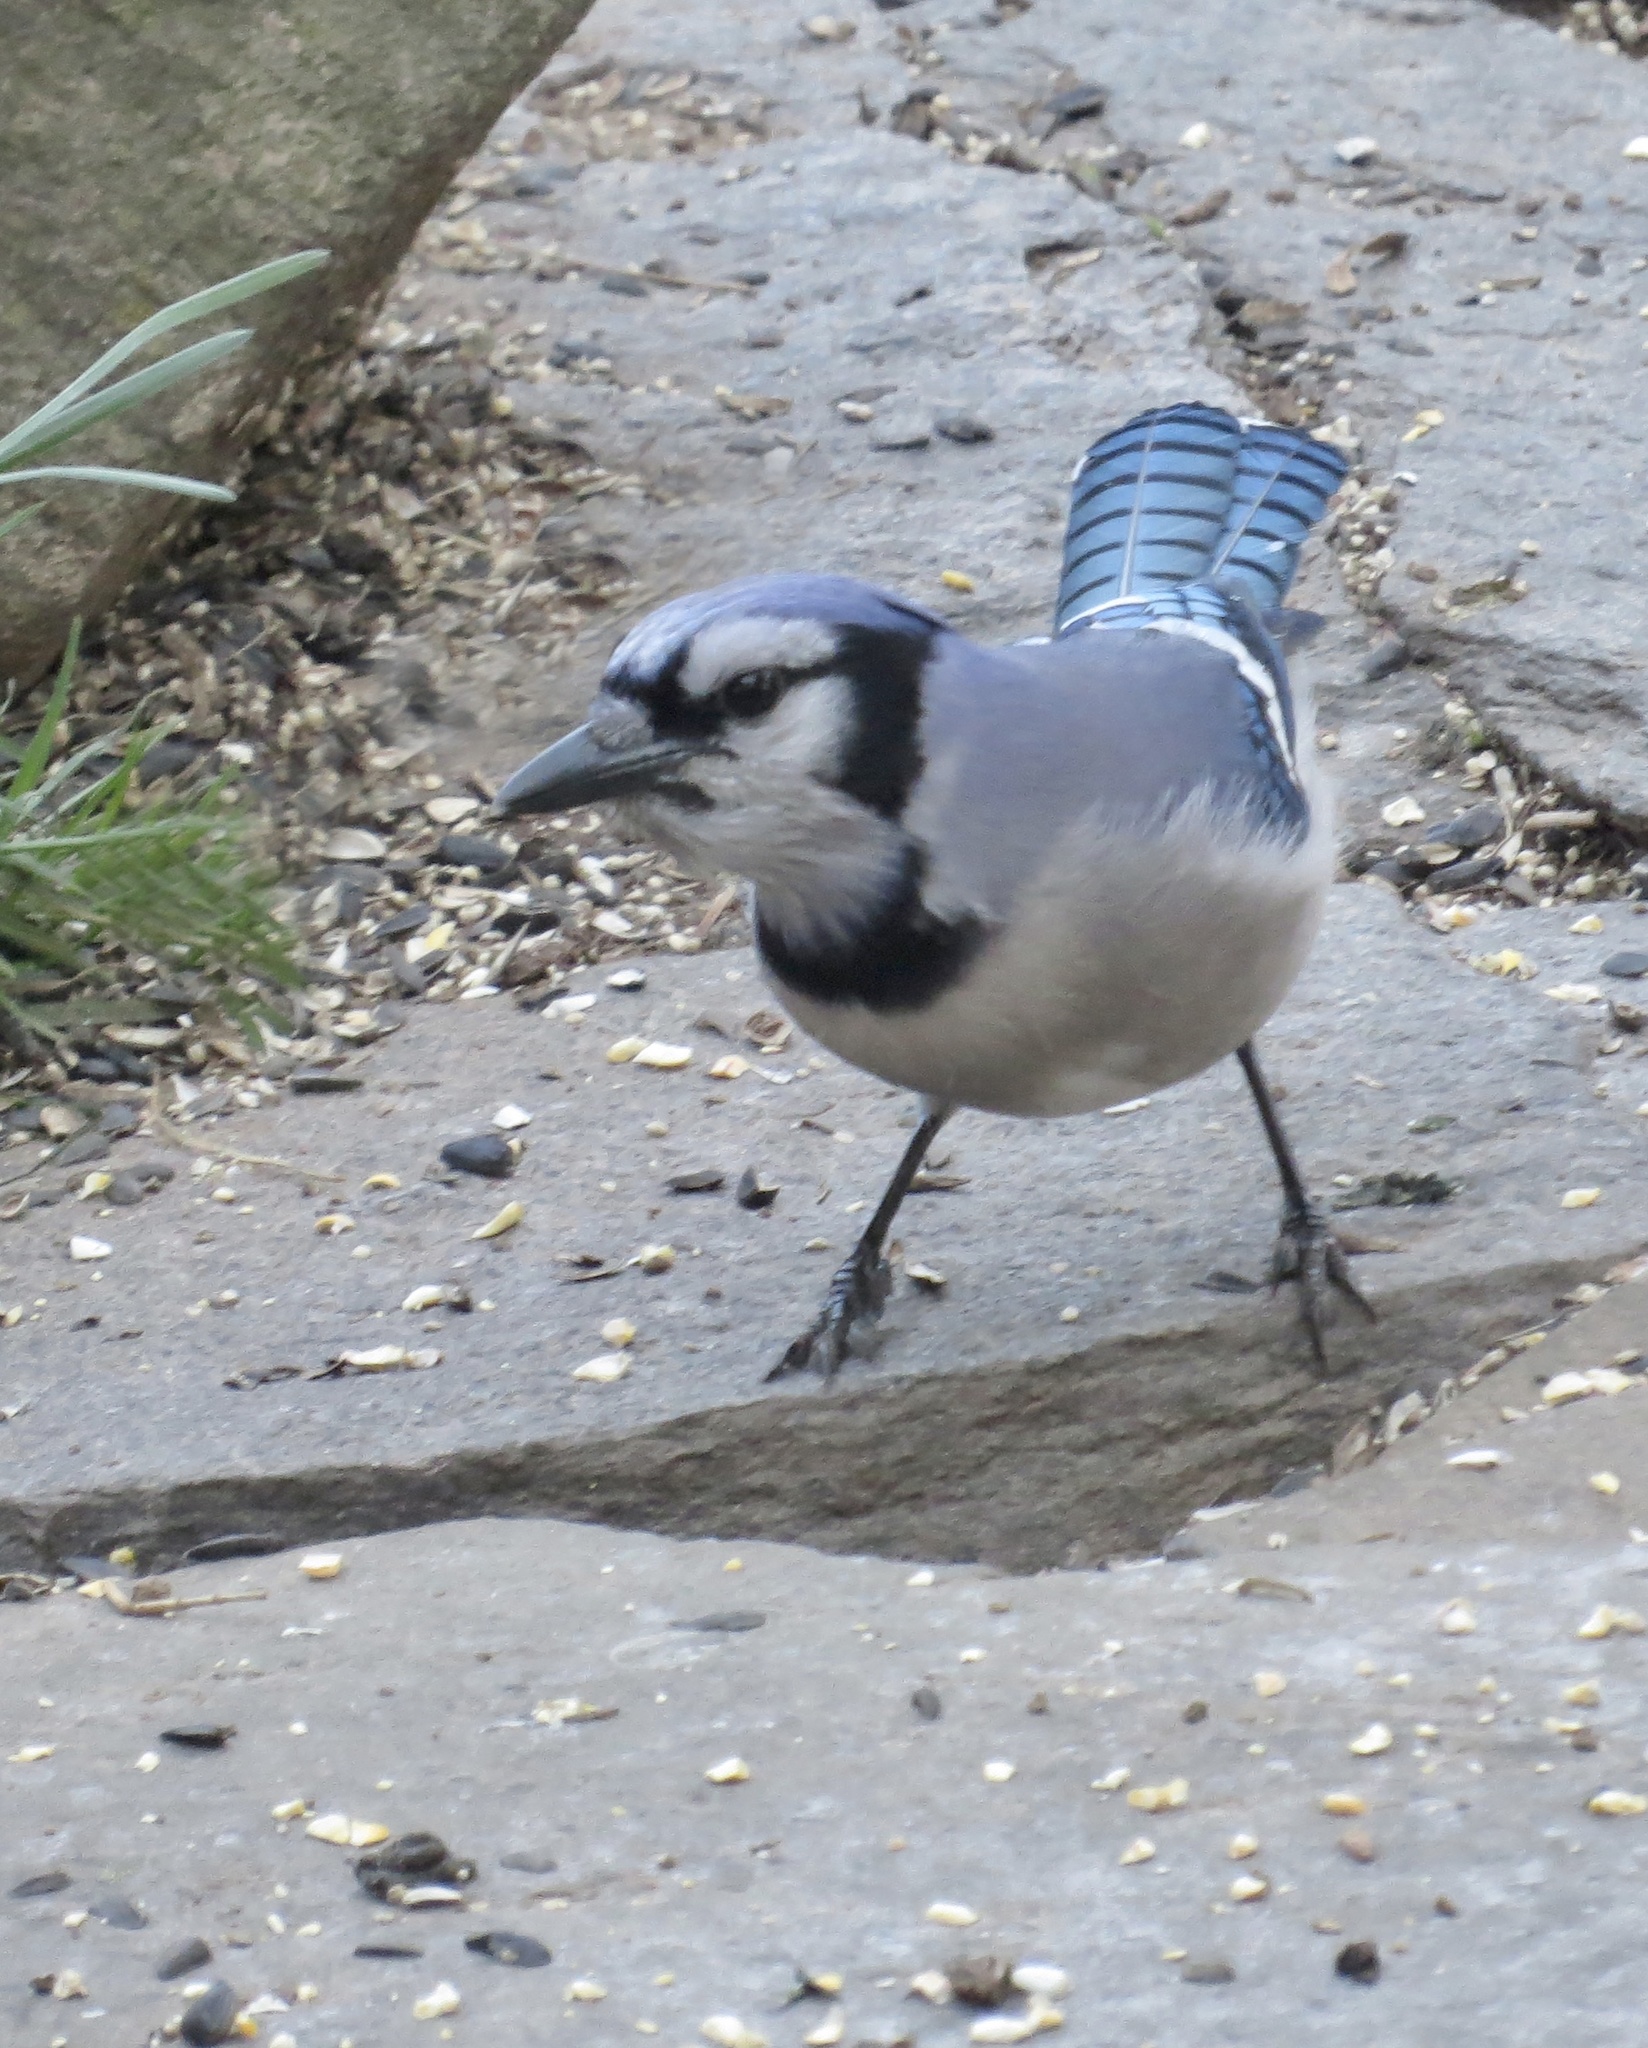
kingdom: Animalia
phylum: Chordata
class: Aves
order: Passeriformes
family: Corvidae
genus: Cyanocitta
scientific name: Cyanocitta cristata
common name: Blue jay
